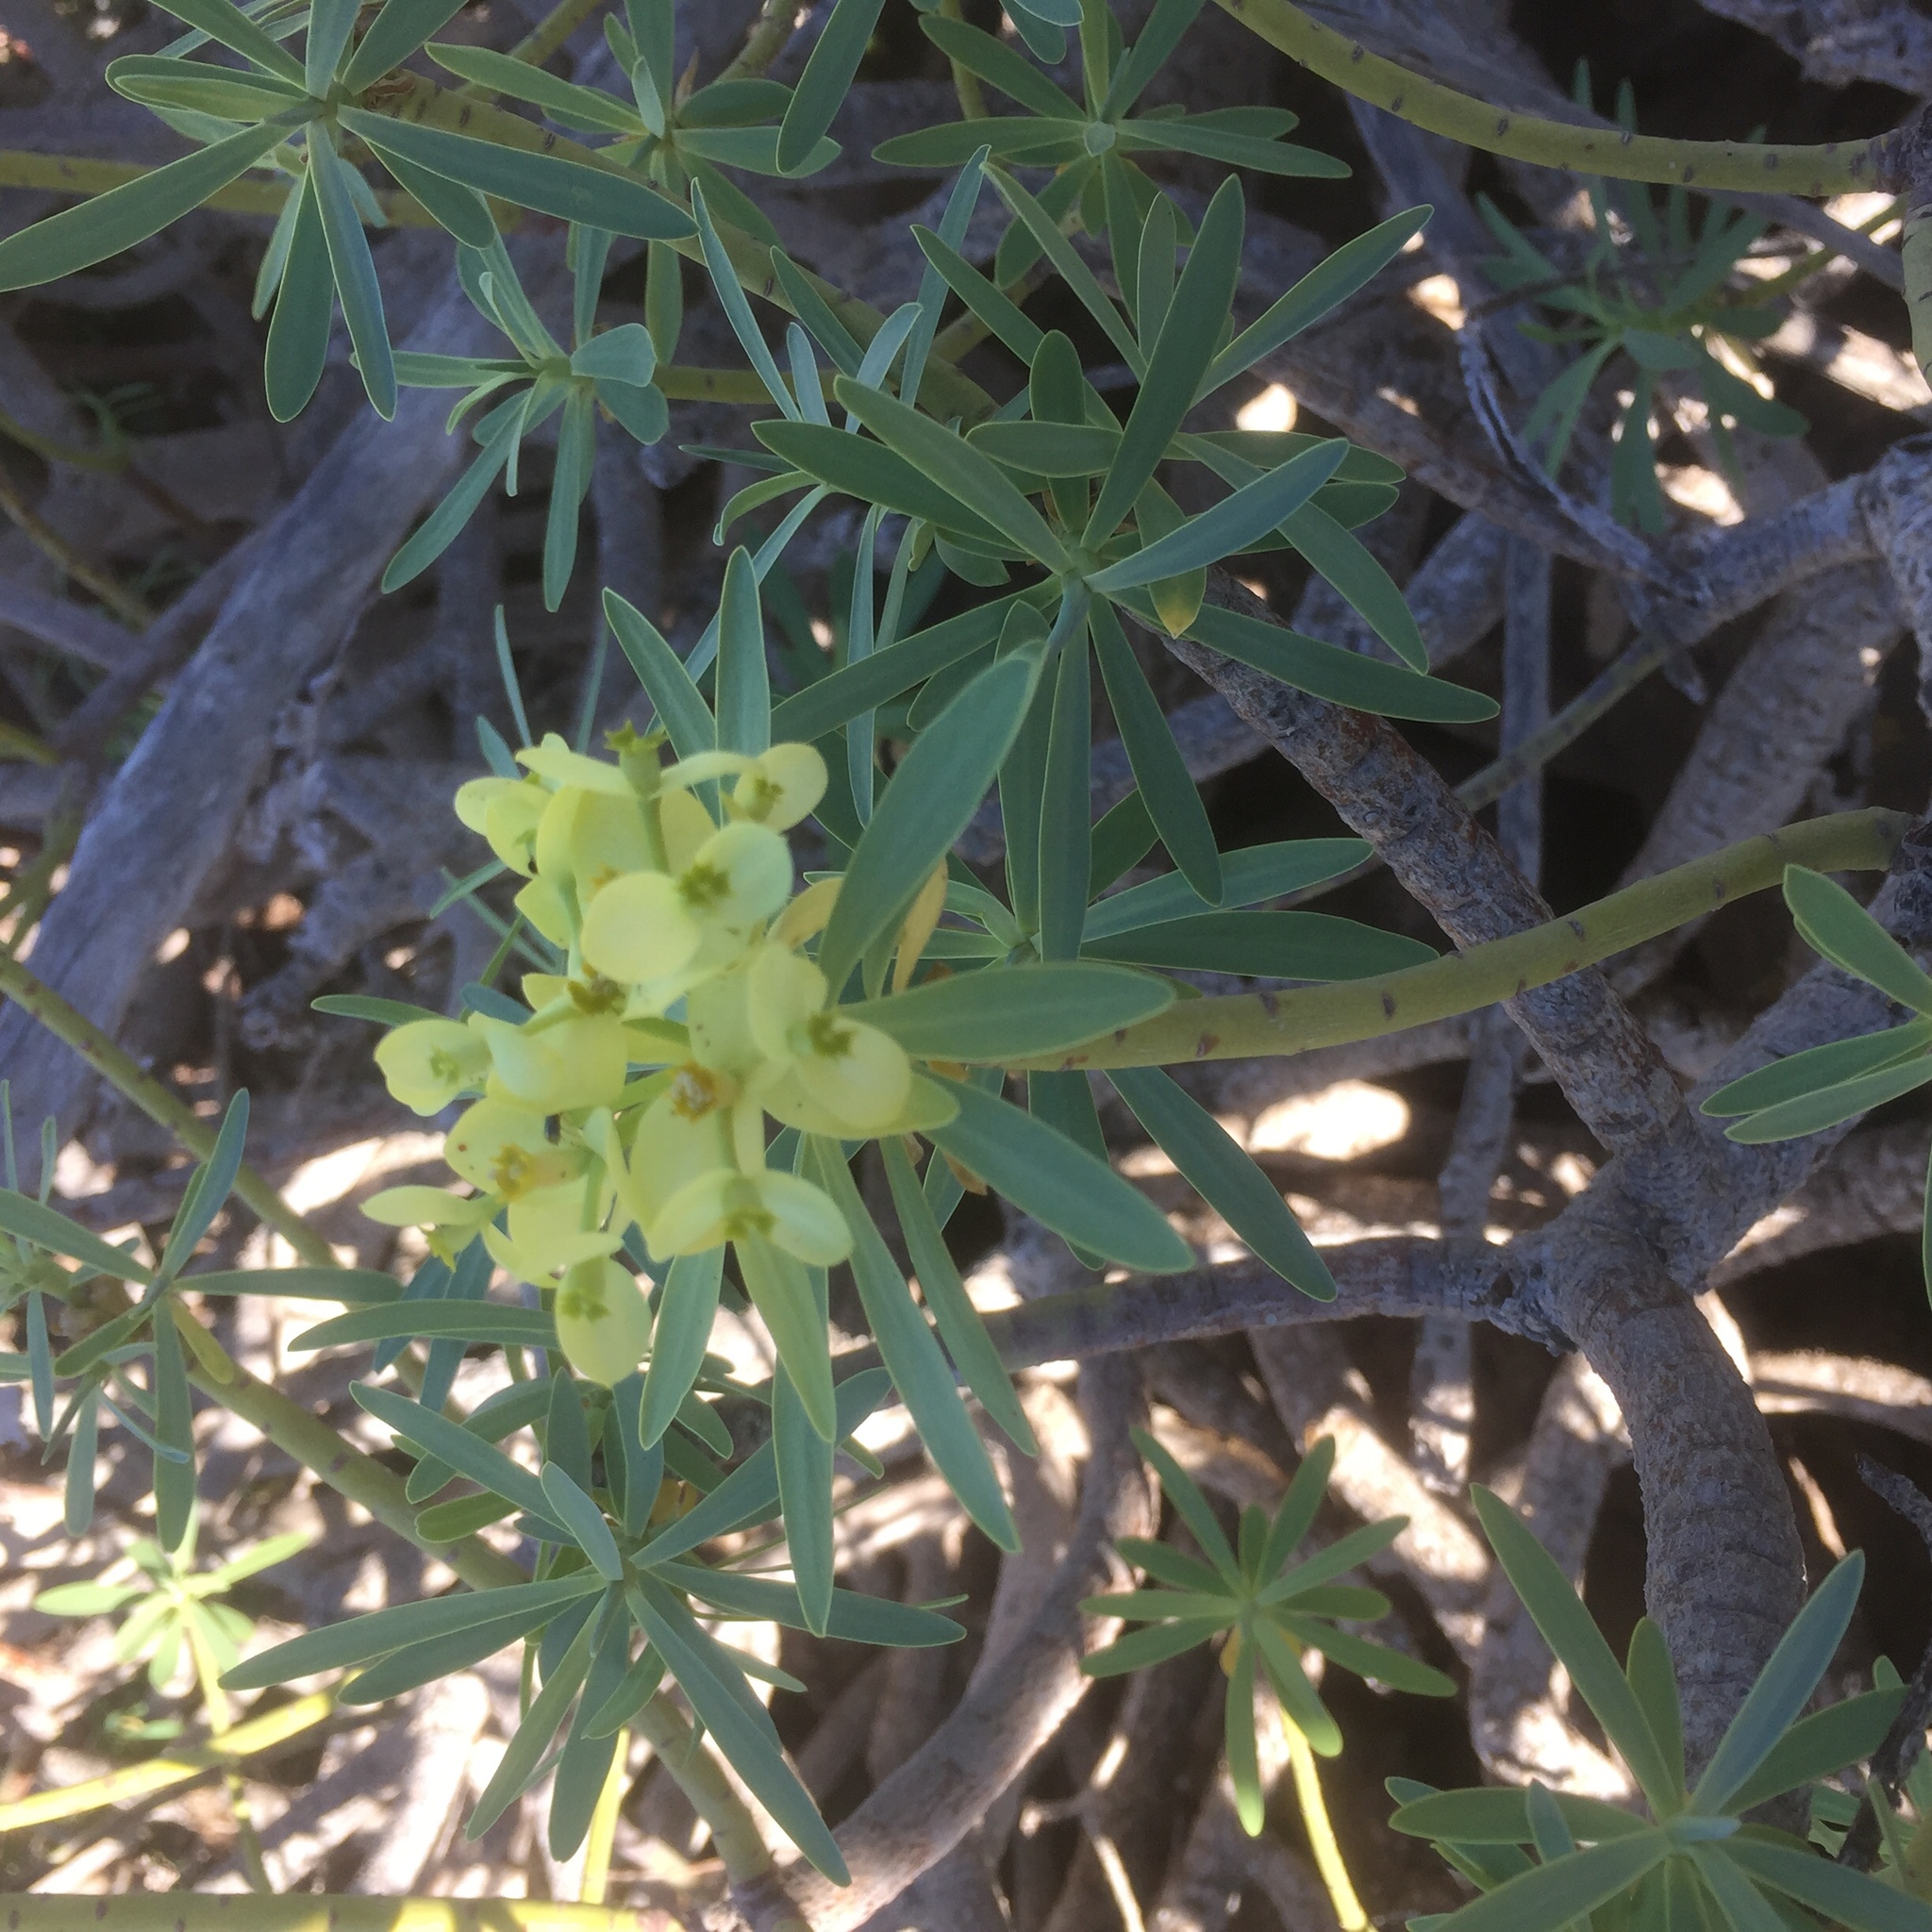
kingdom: Plantae
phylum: Tracheophyta
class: Magnoliopsida
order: Malpighiales
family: Euphorbiaceae
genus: Euphorbia
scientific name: Euphorbia regis-jubae
